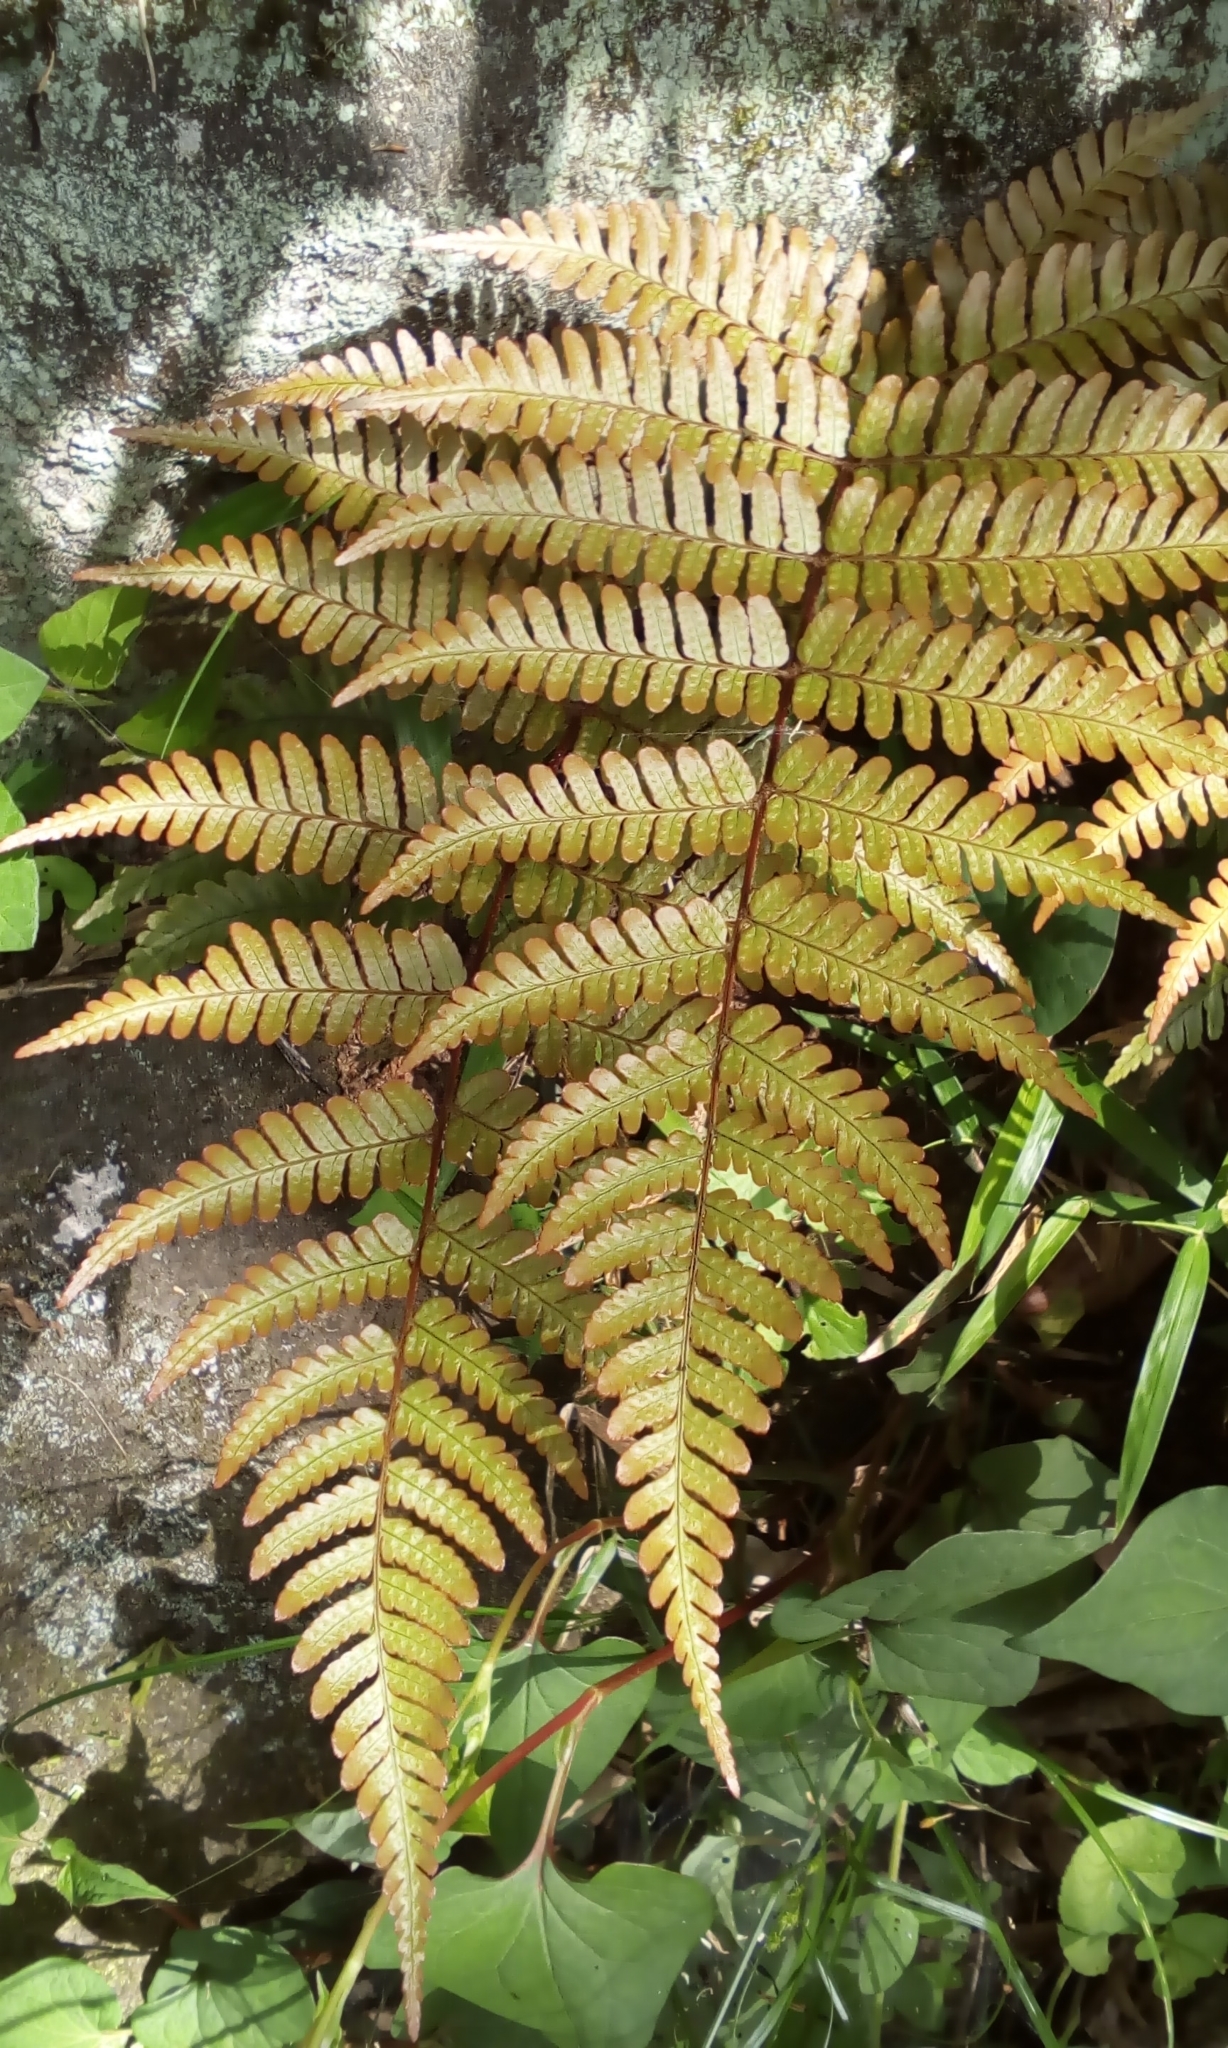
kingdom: Plantae
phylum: Tracheophyta
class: Polypodiopsida
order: Polypodiales
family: Dryopteridaceae
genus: Dryopteris
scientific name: Dryopteris erythrosora
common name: Autumn fern
